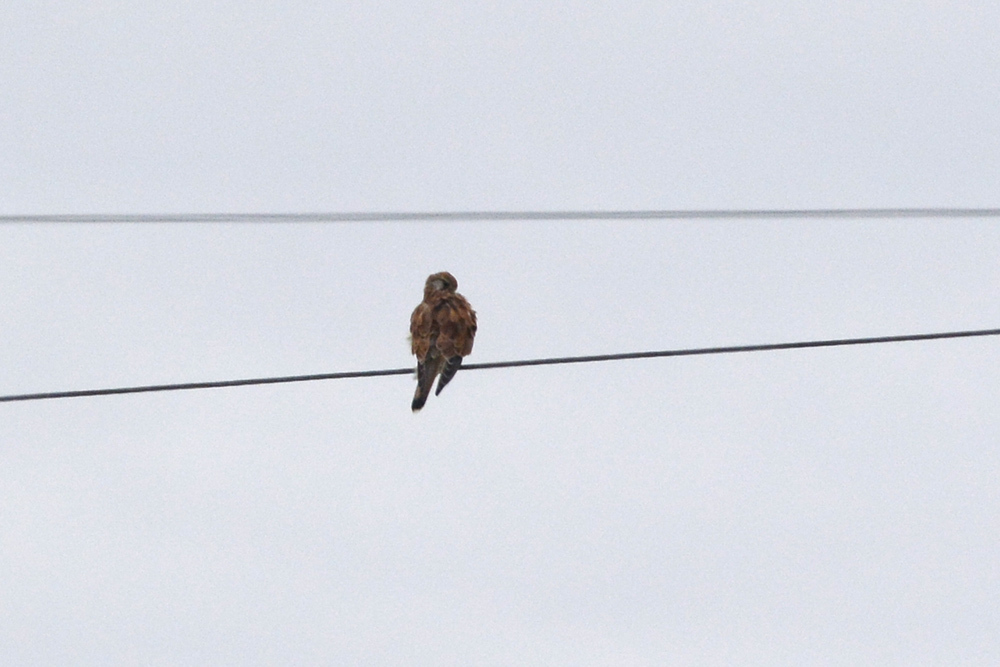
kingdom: Animalia
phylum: Chordata
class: Aves
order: Falconiformes
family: Falconidae
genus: Falco
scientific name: Falco cenchroides
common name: Nankeen kestrel
